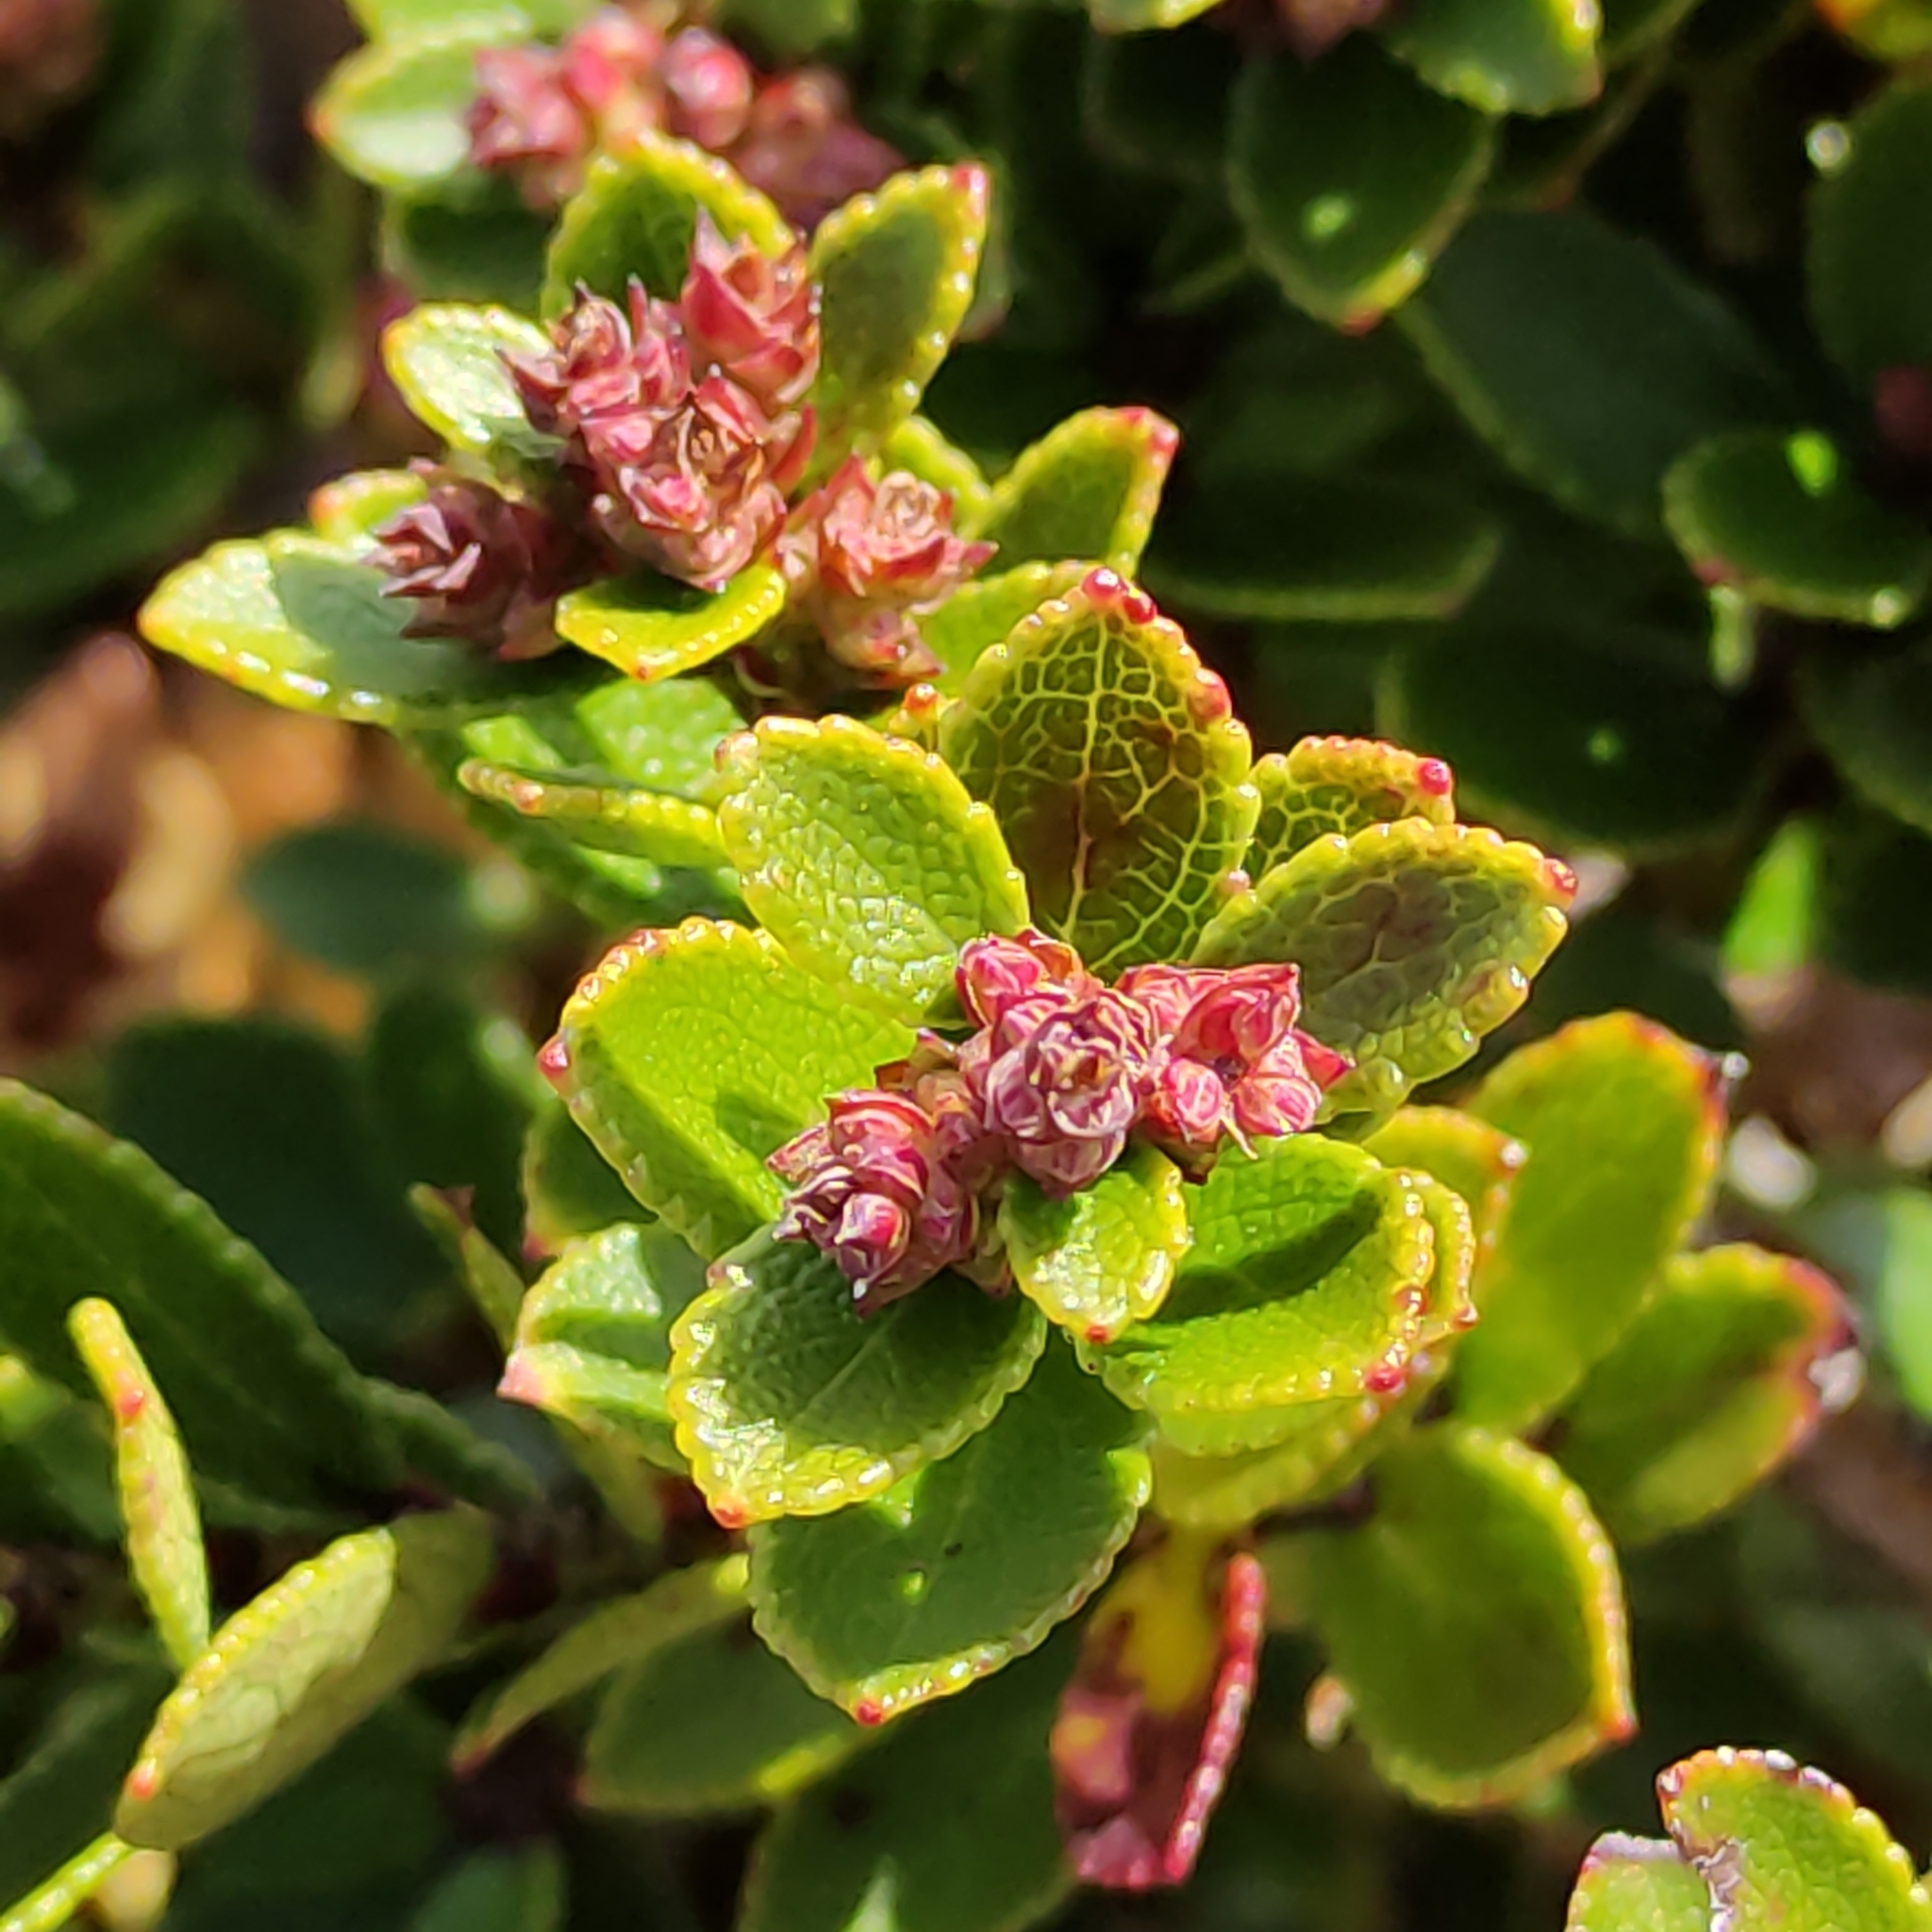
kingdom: Plantae
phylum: Tracheophyta
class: Magnoliopsida
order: Ericales
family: Ericaceae
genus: Gaultheria
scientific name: Gaultheria crassa
